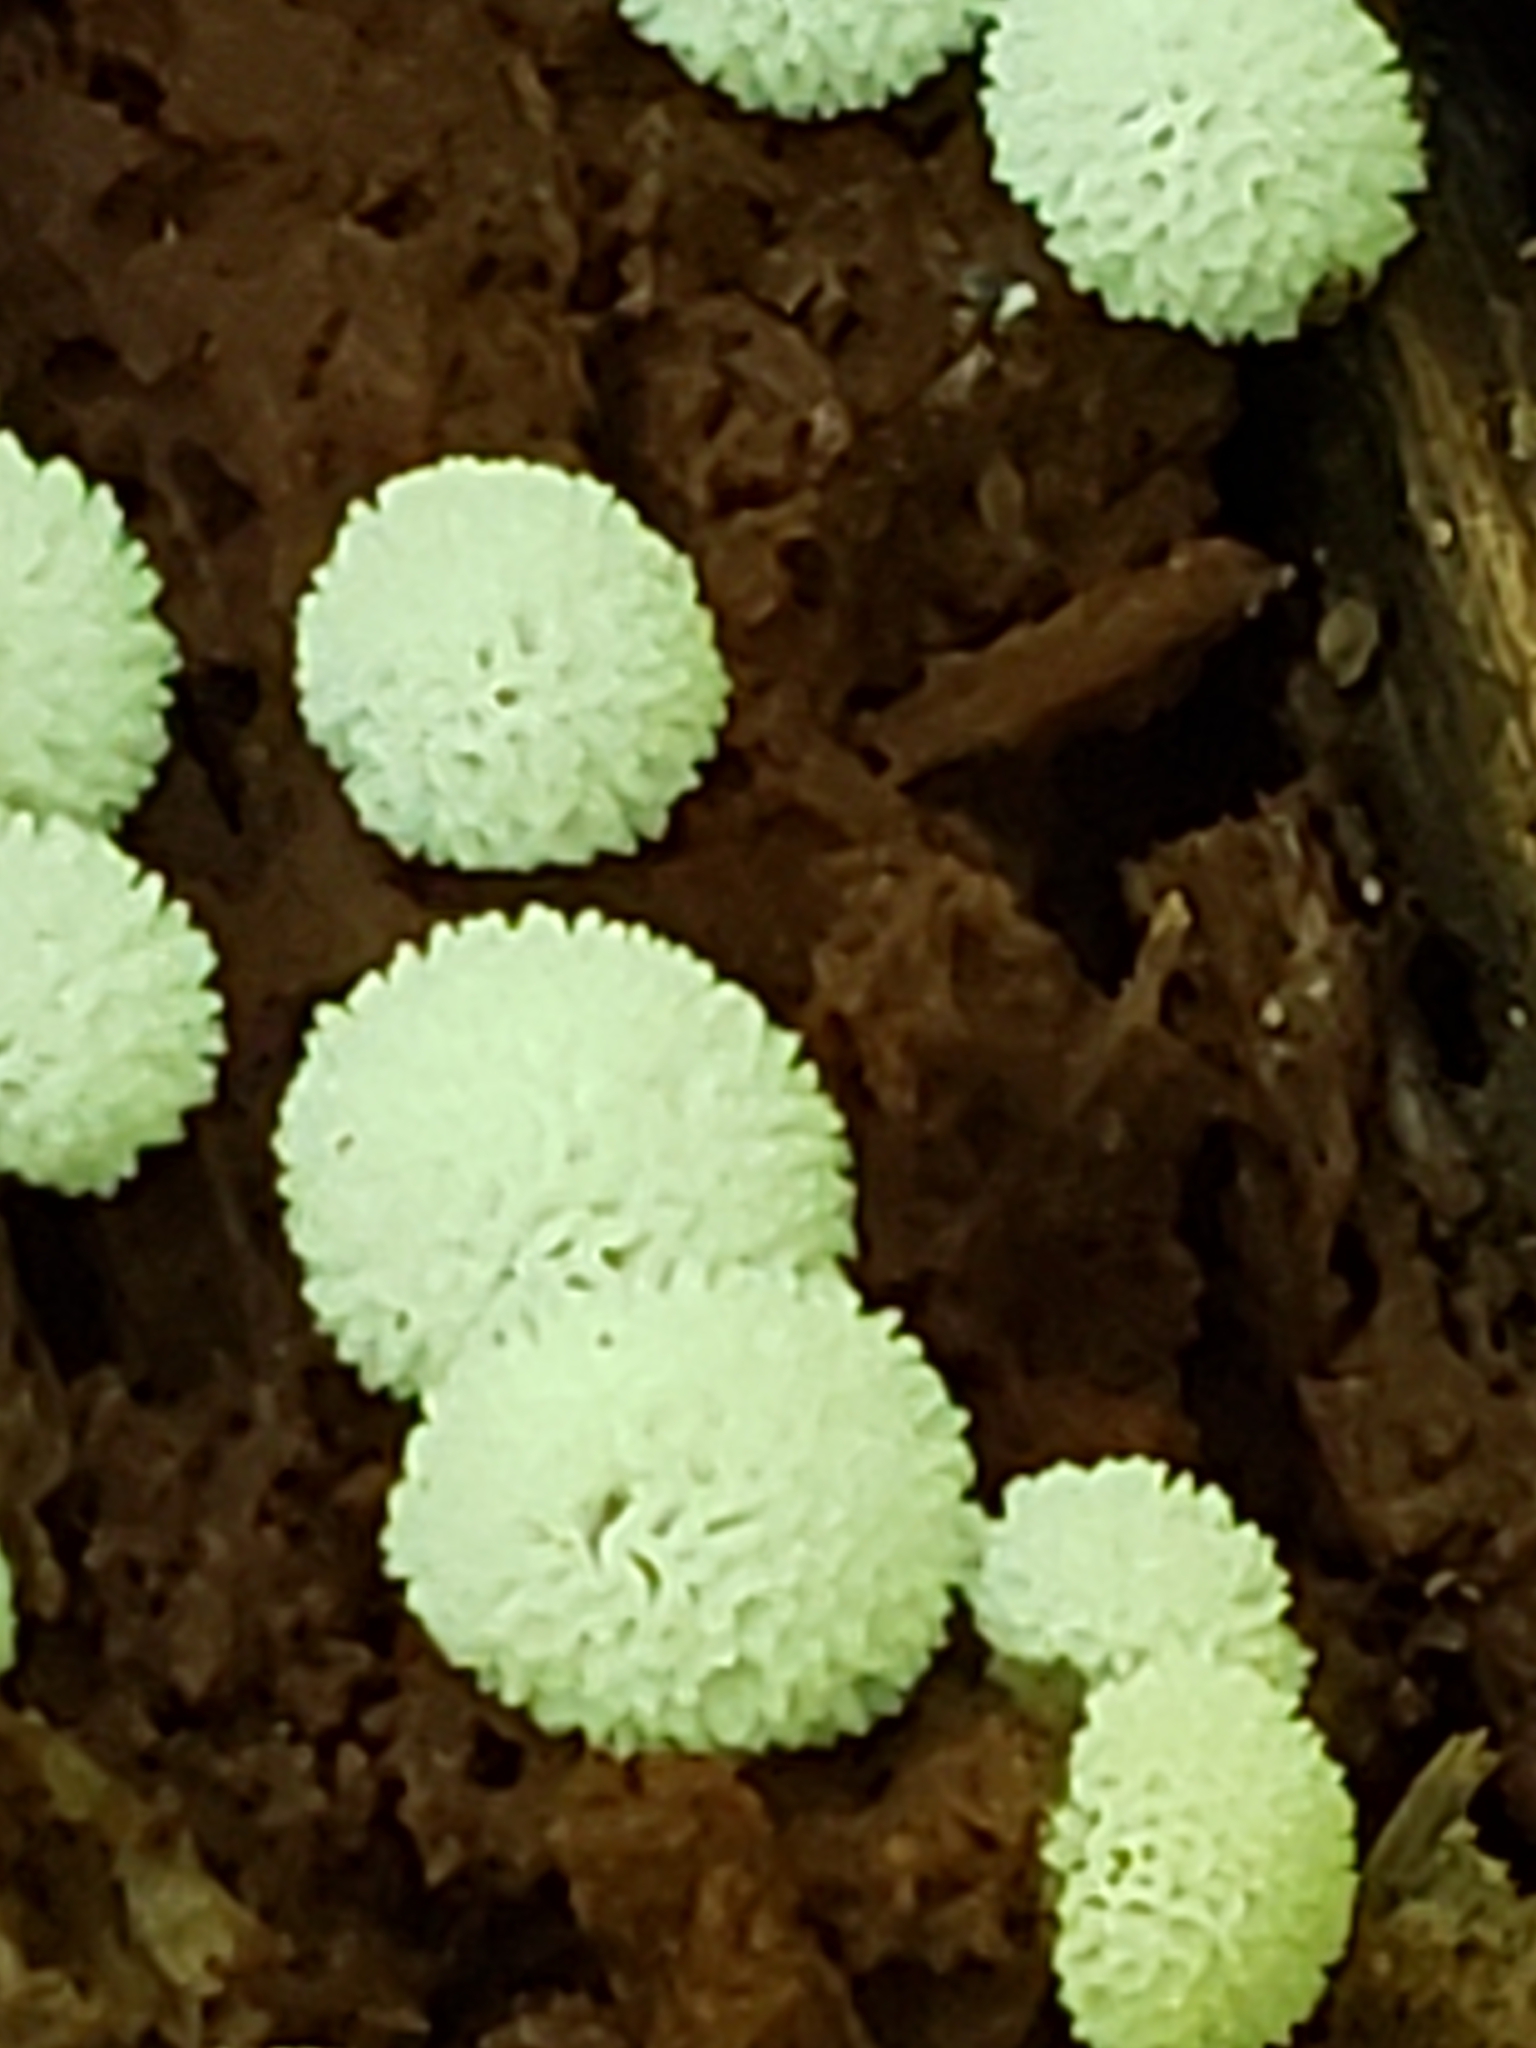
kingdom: Protozoa
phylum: Mycetozoa
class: Protosteliomycetes
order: Ceratiomyxales
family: Ceratiomyxaceae
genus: Ceratiomyxa
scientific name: Ceratiomyxa fruticulosa
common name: Honeycomb coral slime mold
